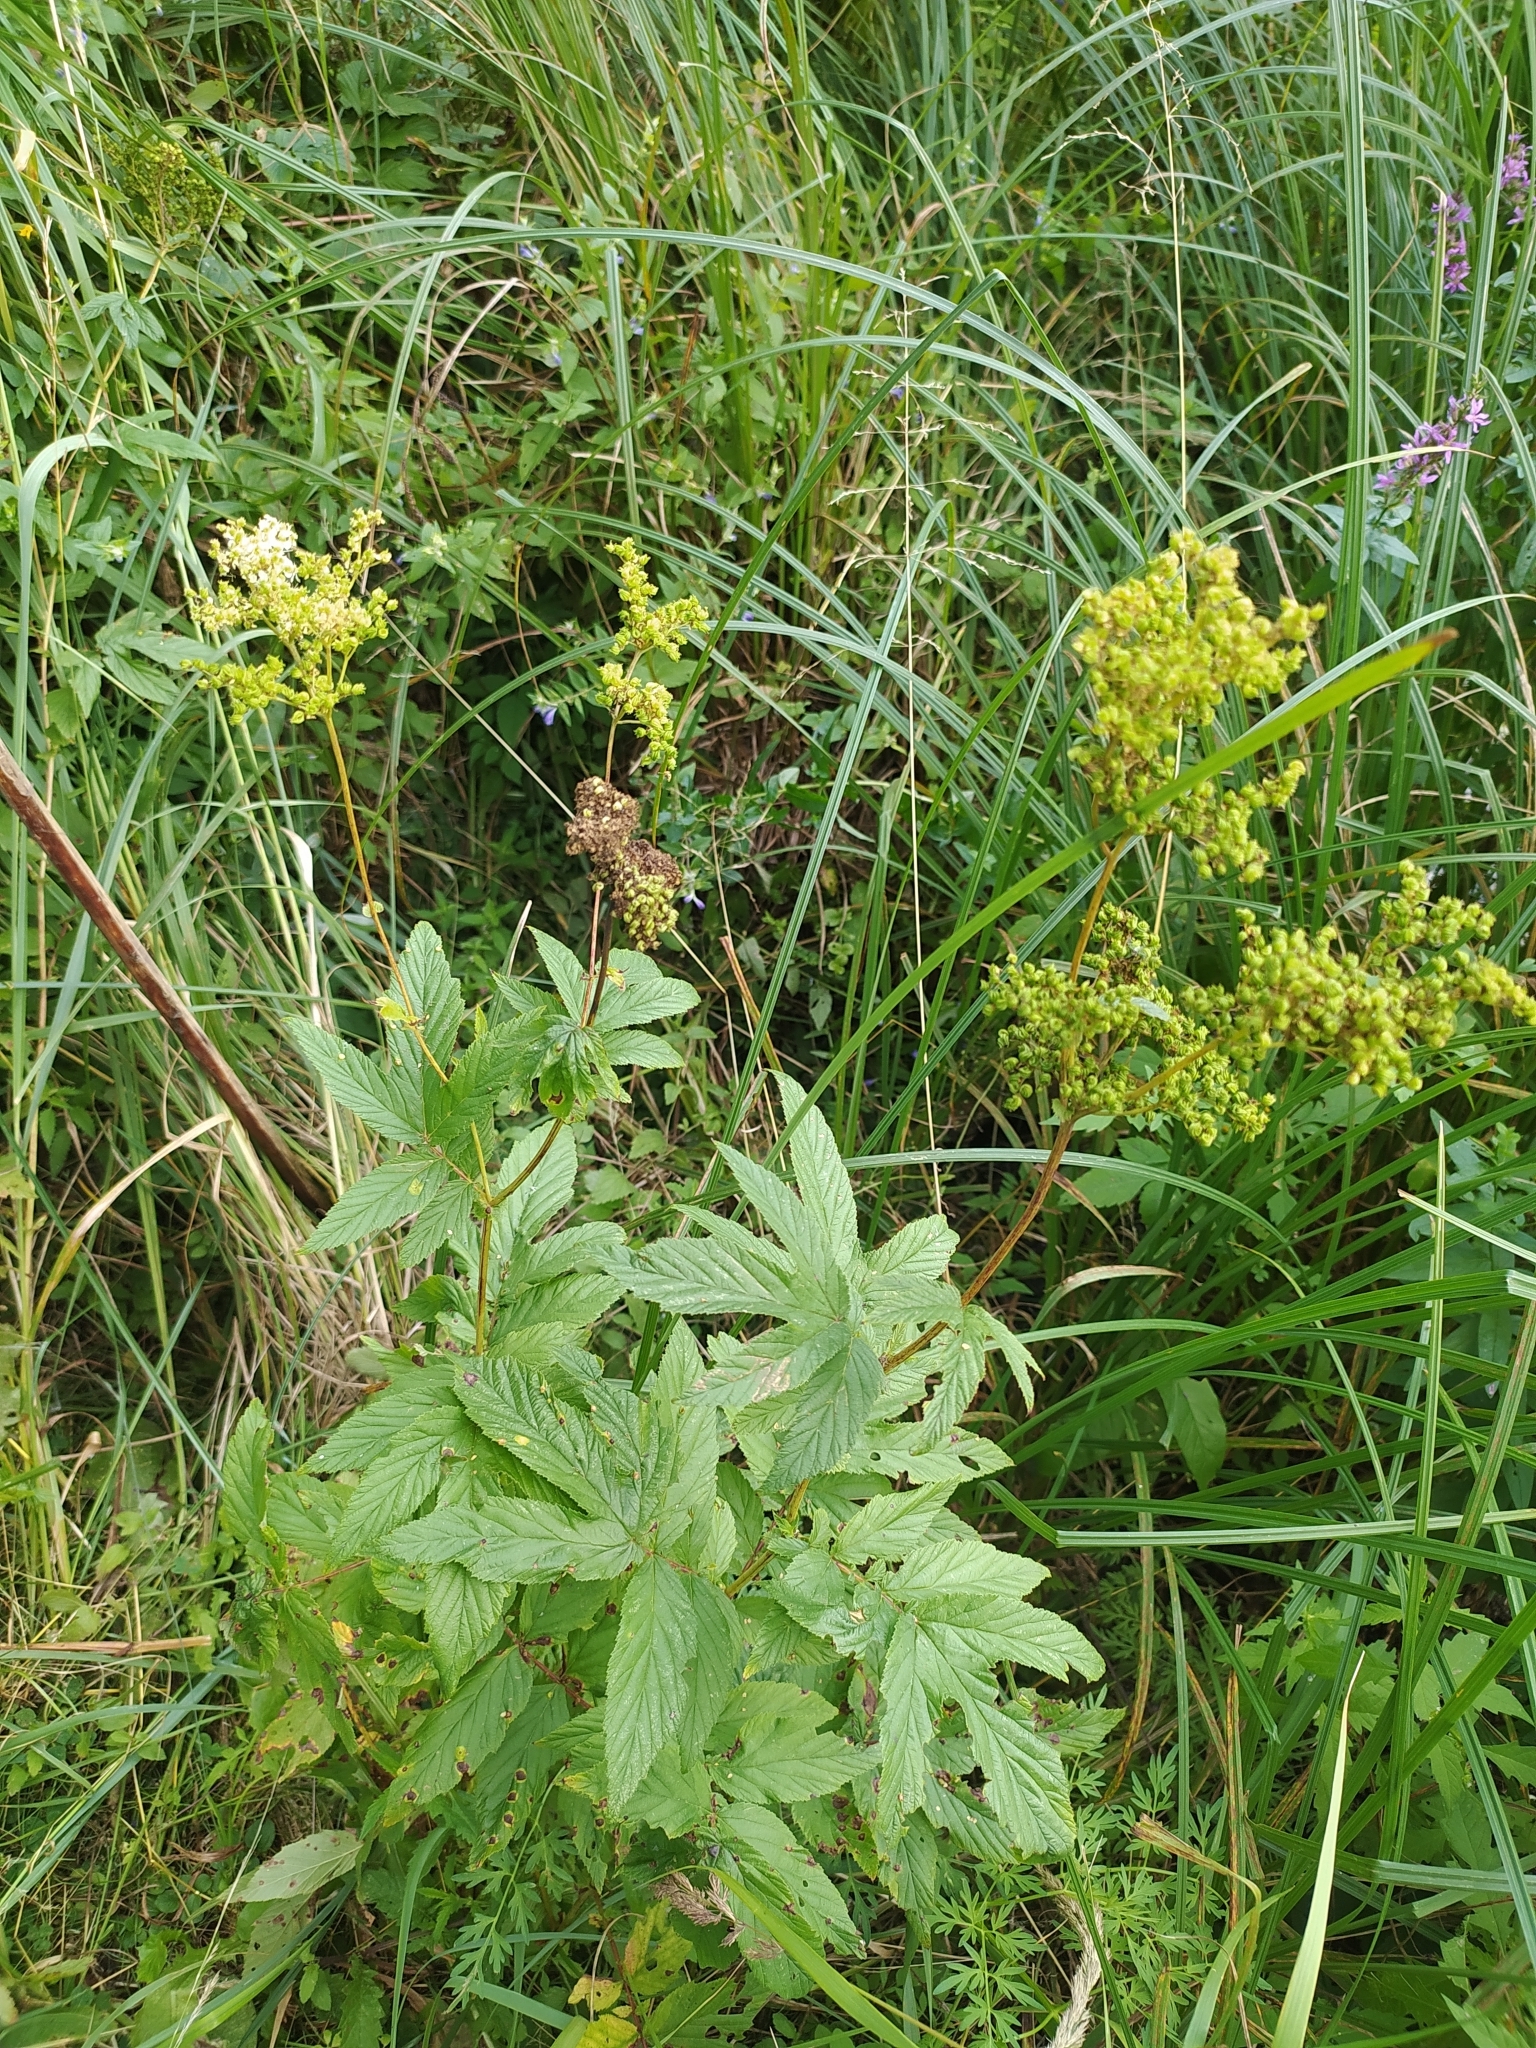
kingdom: Plantae
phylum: Tracheophyta
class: Magnoliopsida
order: Rosales
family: Rosaceae
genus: Filipendula
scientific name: Filipendula ulmaria
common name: Meadowsweet
